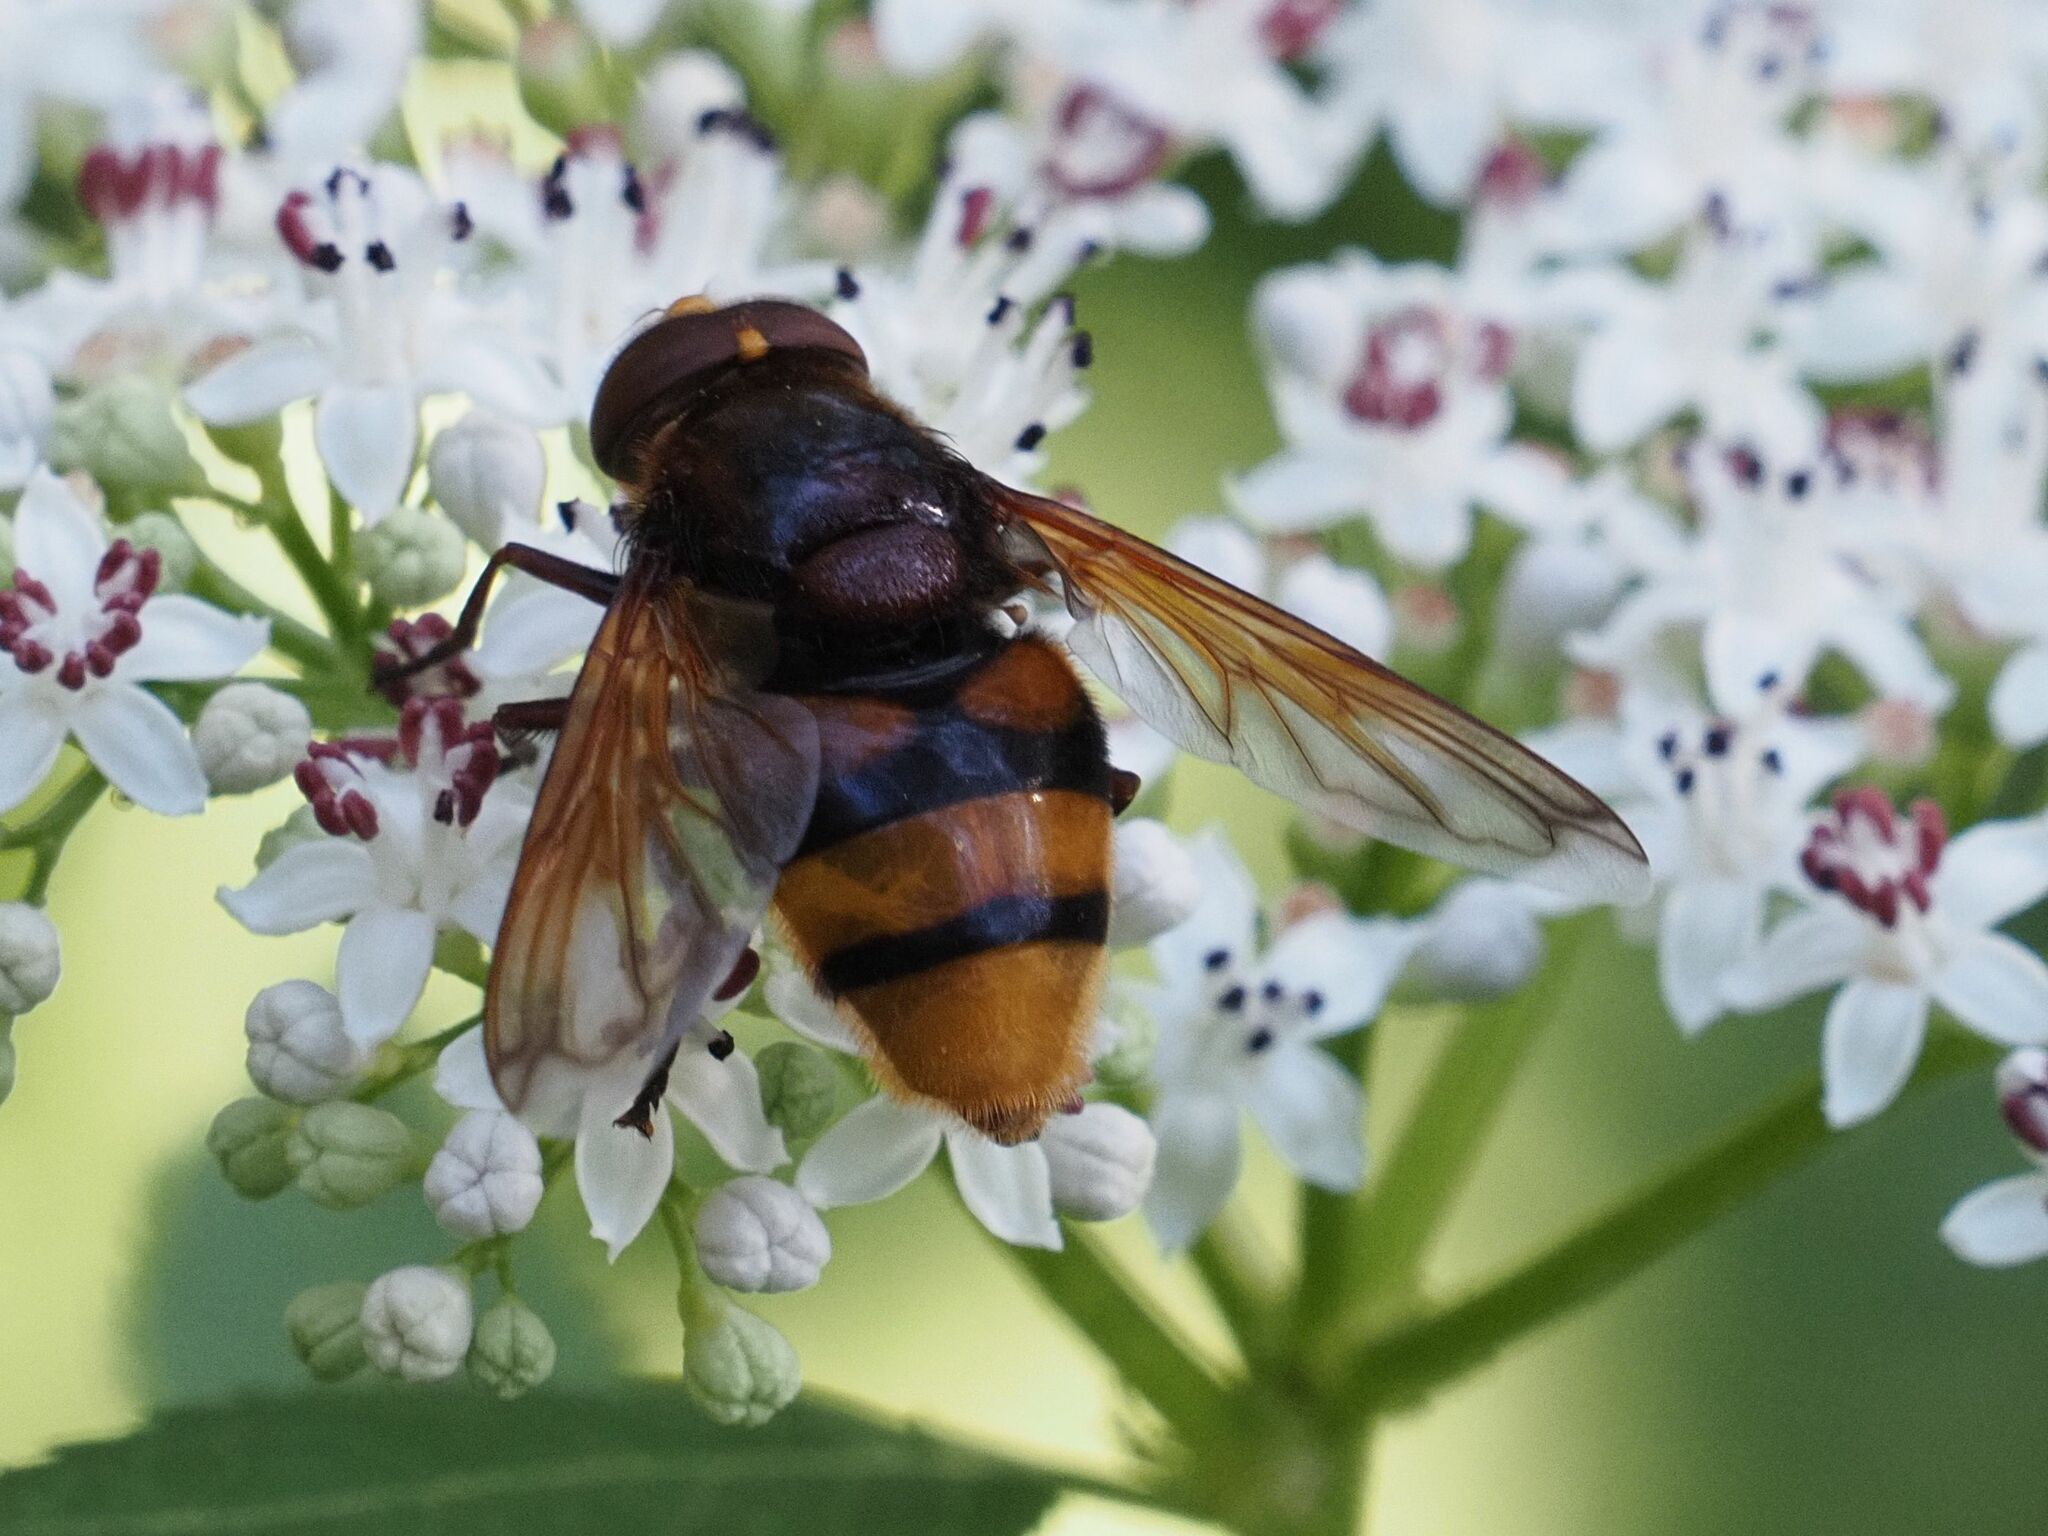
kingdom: Animalia
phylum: Arthropoda
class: Insecta
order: Diptera
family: Syrphidae
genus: Volucella
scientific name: Volucella zonaria
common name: Hornet hoverfly
